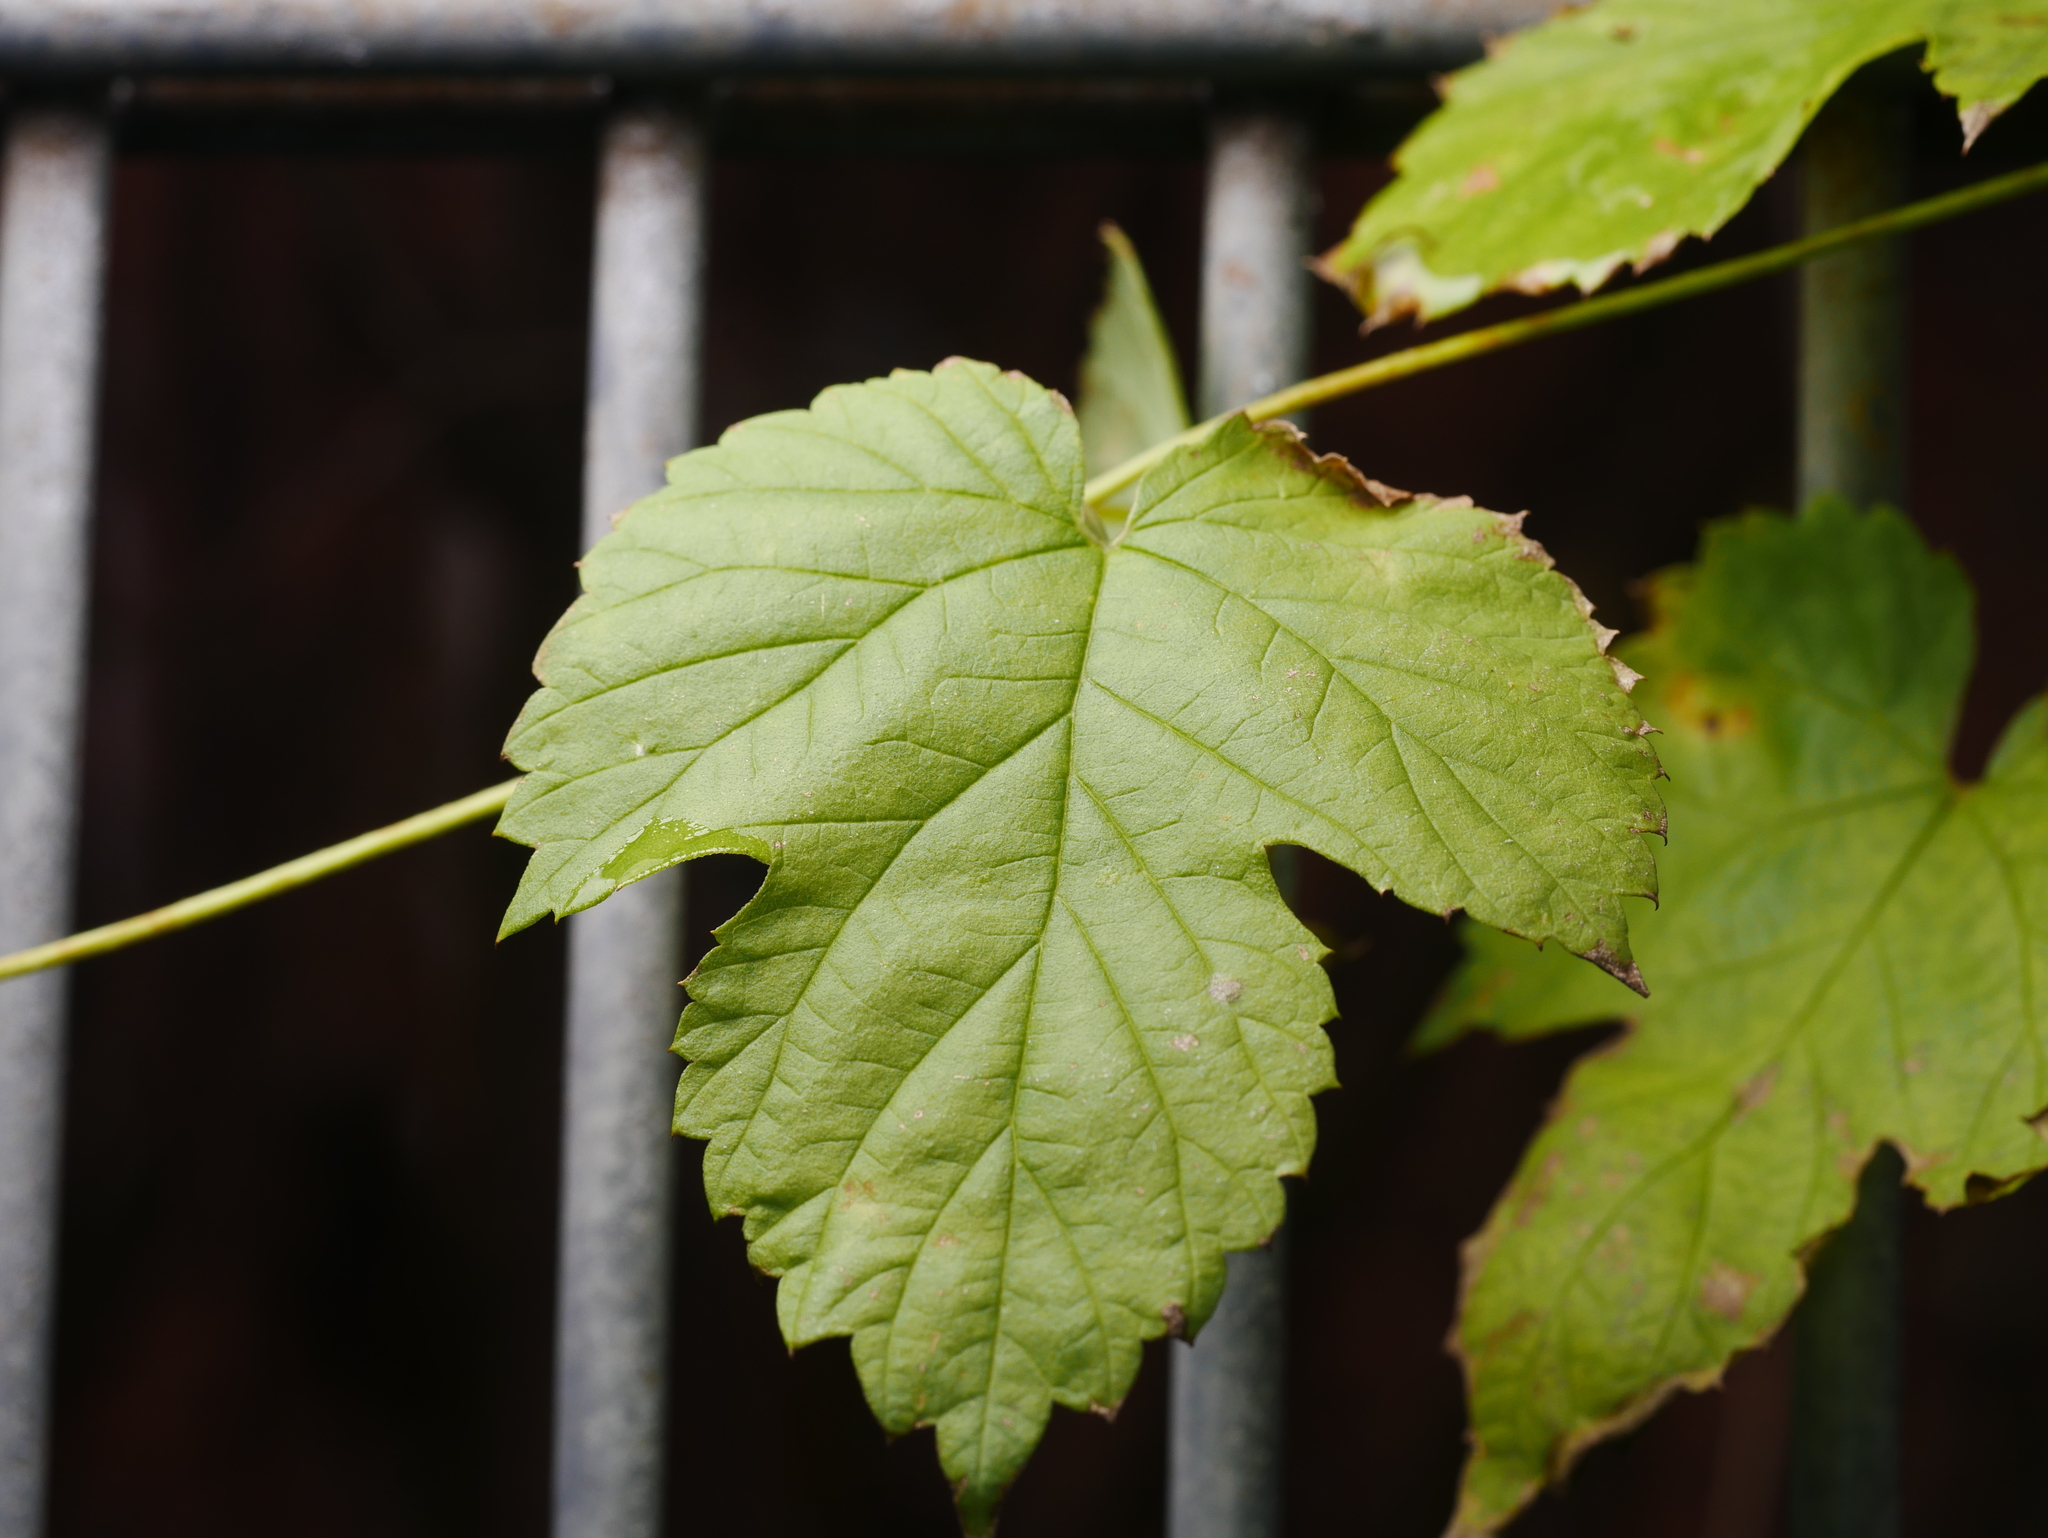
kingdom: Plantae
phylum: Tracheophyta
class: Magnoliopsida
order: Rosales
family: Cannabaceae
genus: Humulus
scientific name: Humulus lupulus
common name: Hop
